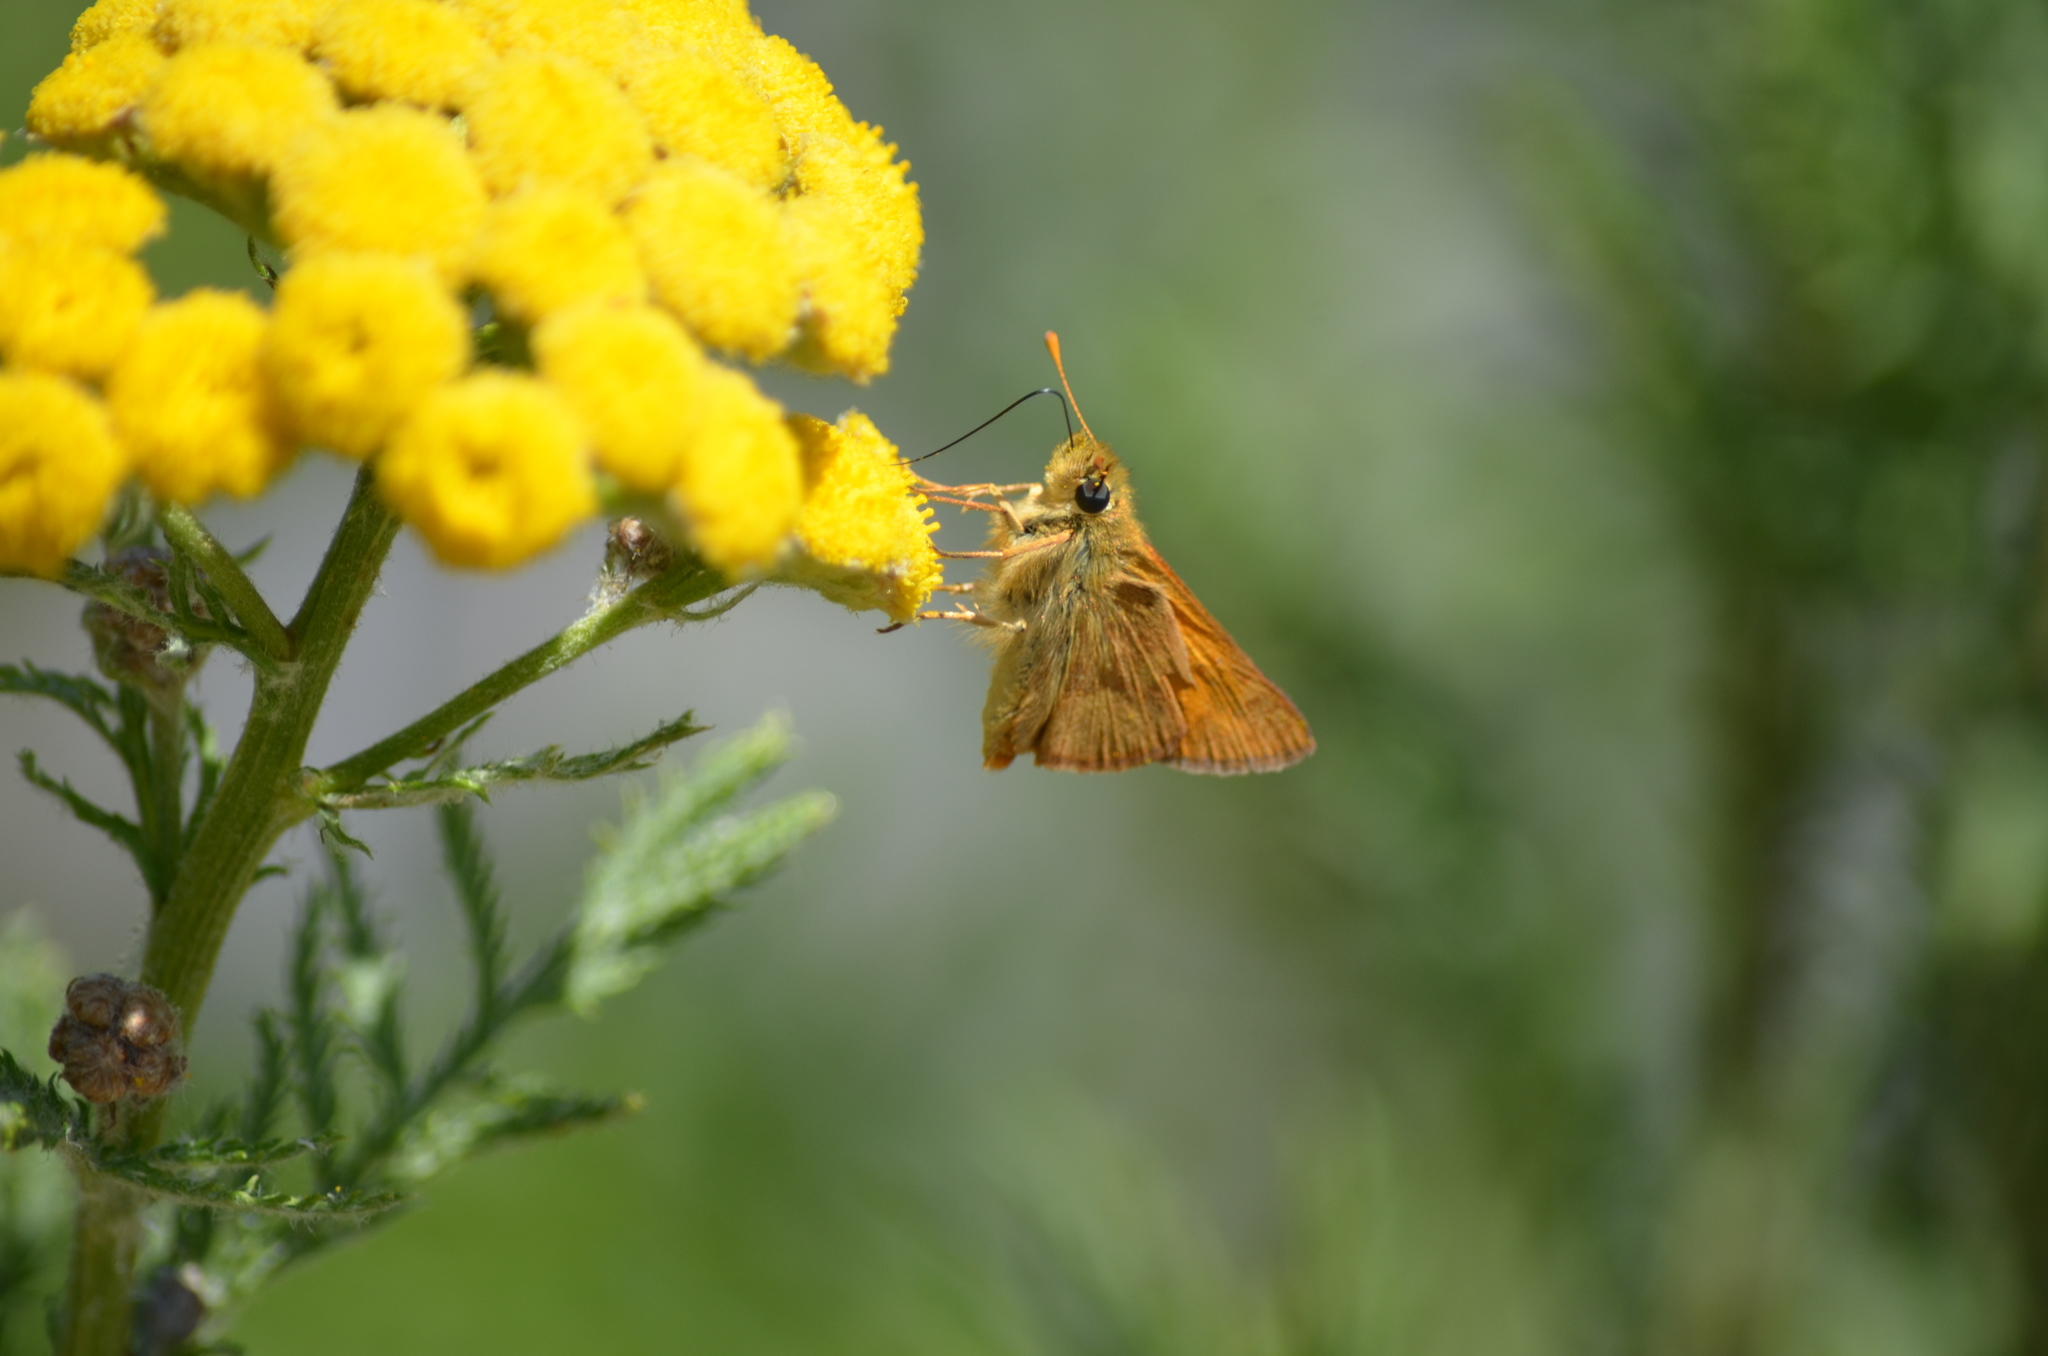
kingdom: Animalia
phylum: Arthropoda
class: Insecta
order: Lepidoptera
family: Hesperiidae
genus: Ochlodes
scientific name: Ochlodes sylvanoides
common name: Woodland skipper
